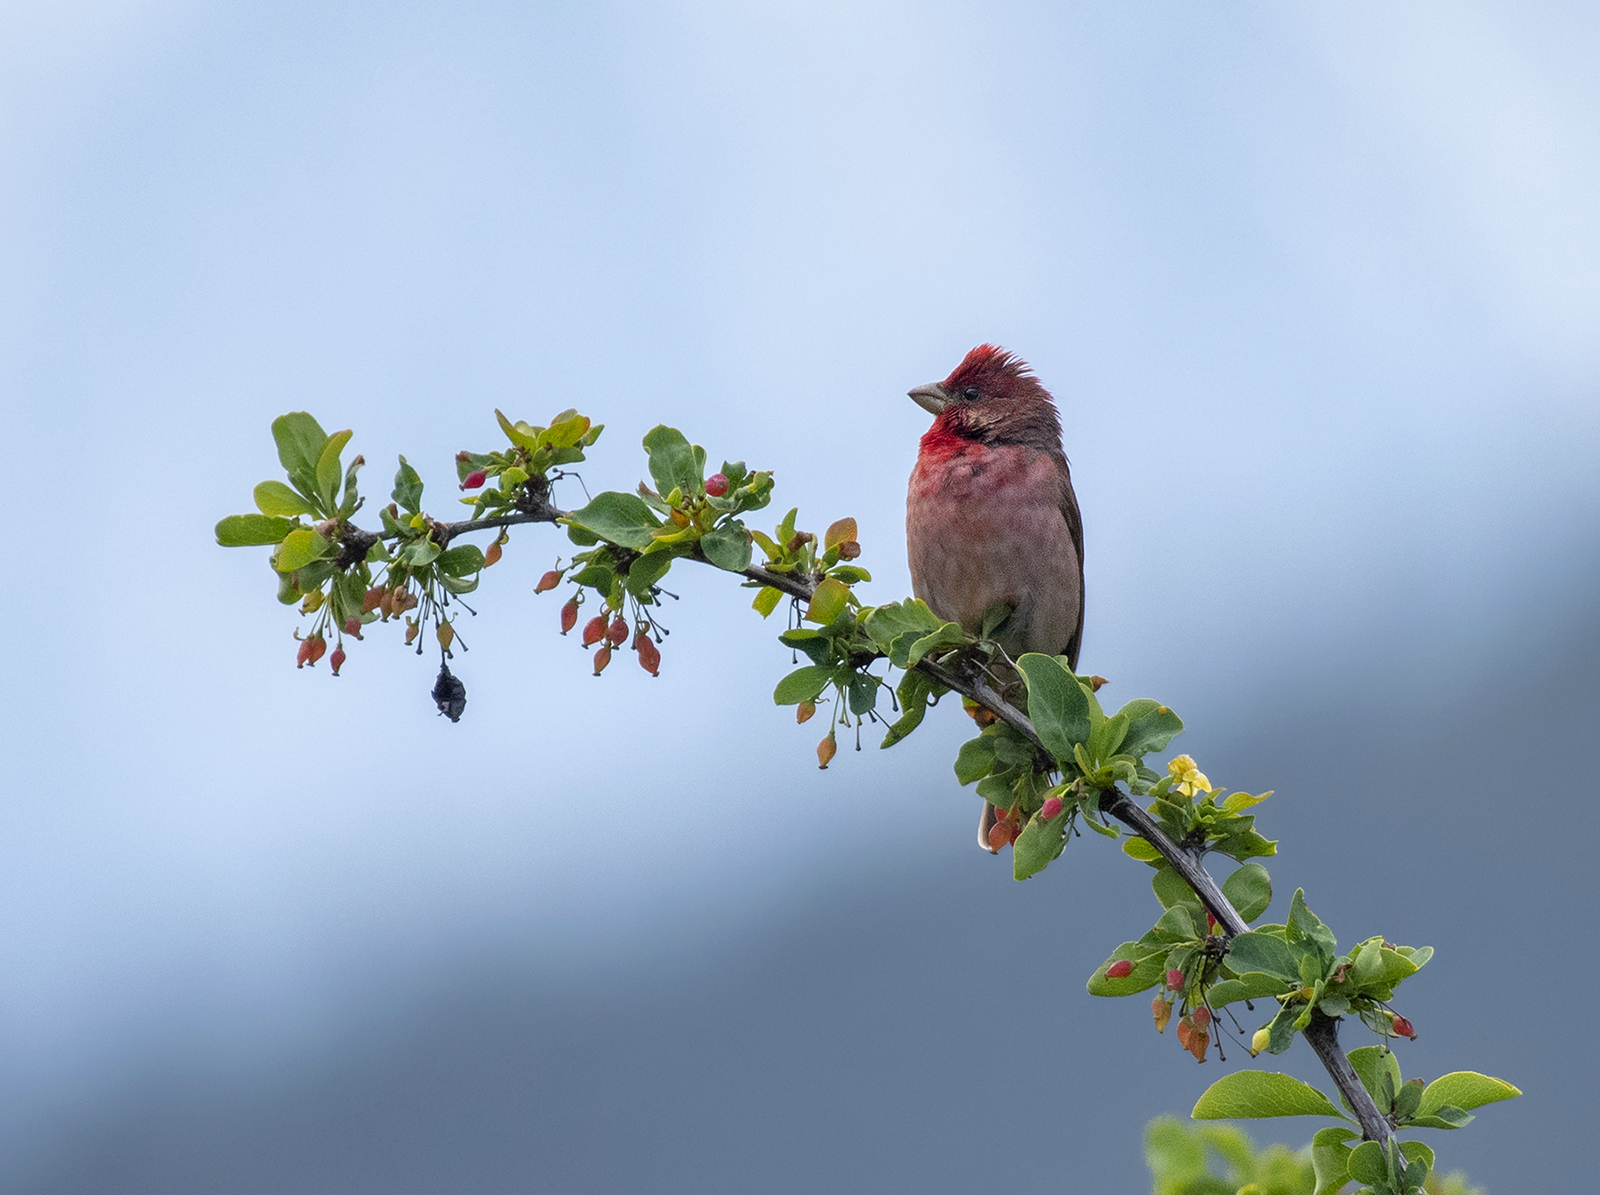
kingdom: Animalia
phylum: Chordata
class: Aves
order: Passeriformes
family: Fringillidae
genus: Carpodacus
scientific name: Carpodacus erythrinus
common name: Common rosefinch
